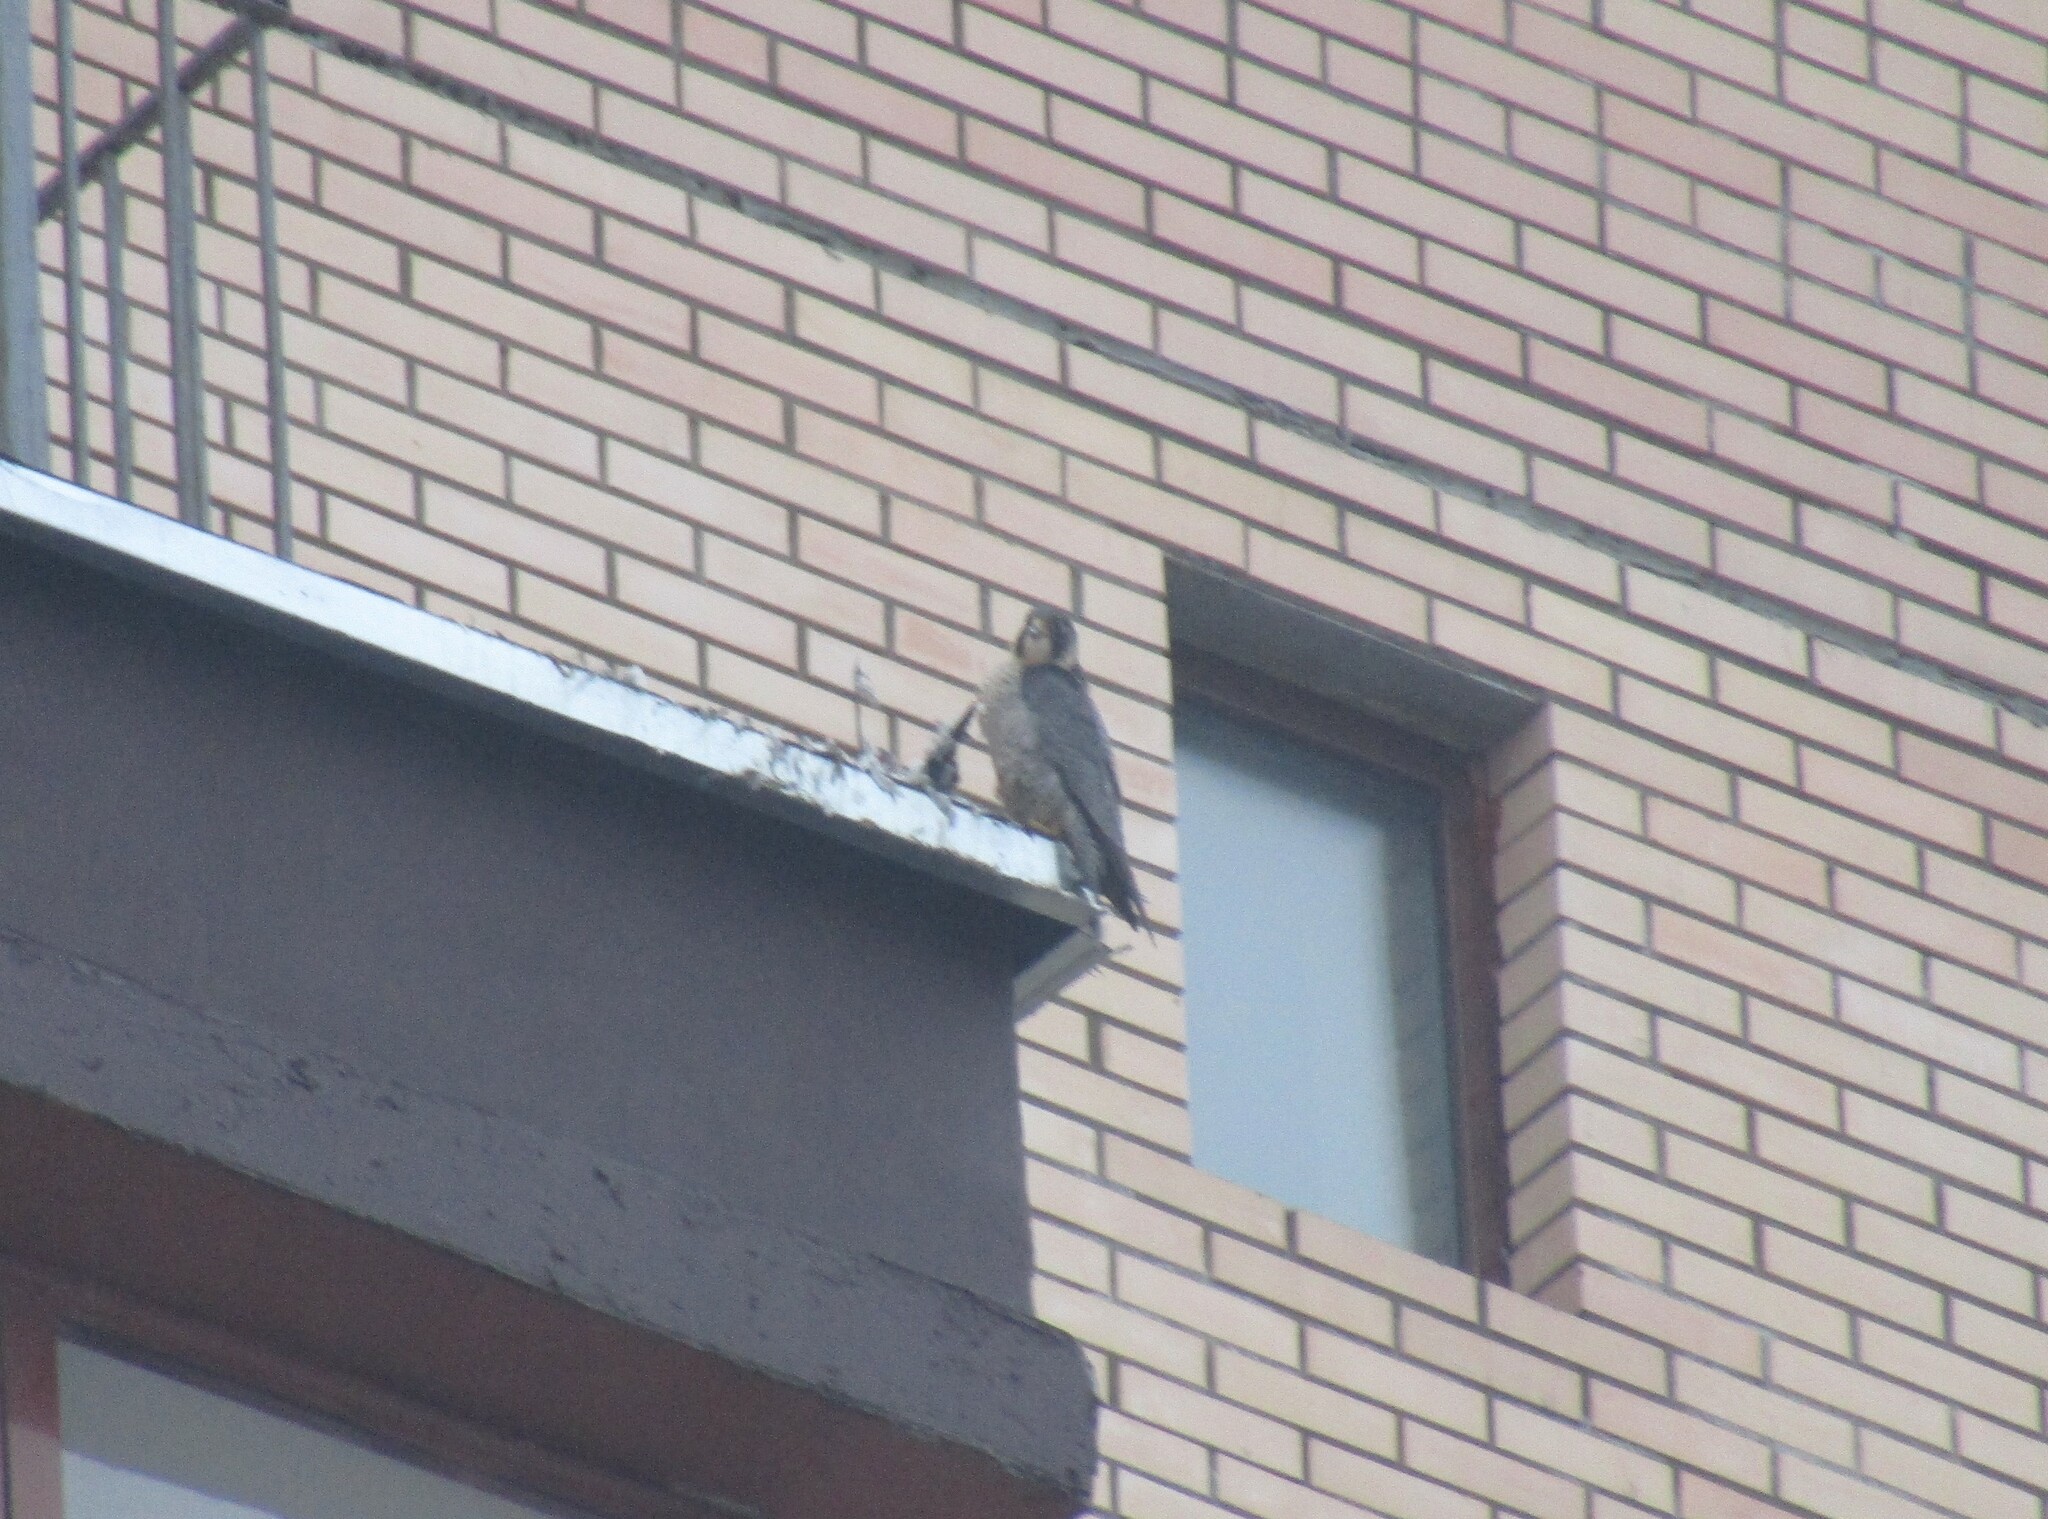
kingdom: Animalia
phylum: Chordata
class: Aves
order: Falconiformes
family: Falconidae
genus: Falco
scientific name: Falco peregrinus
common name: Peregrine falcon
